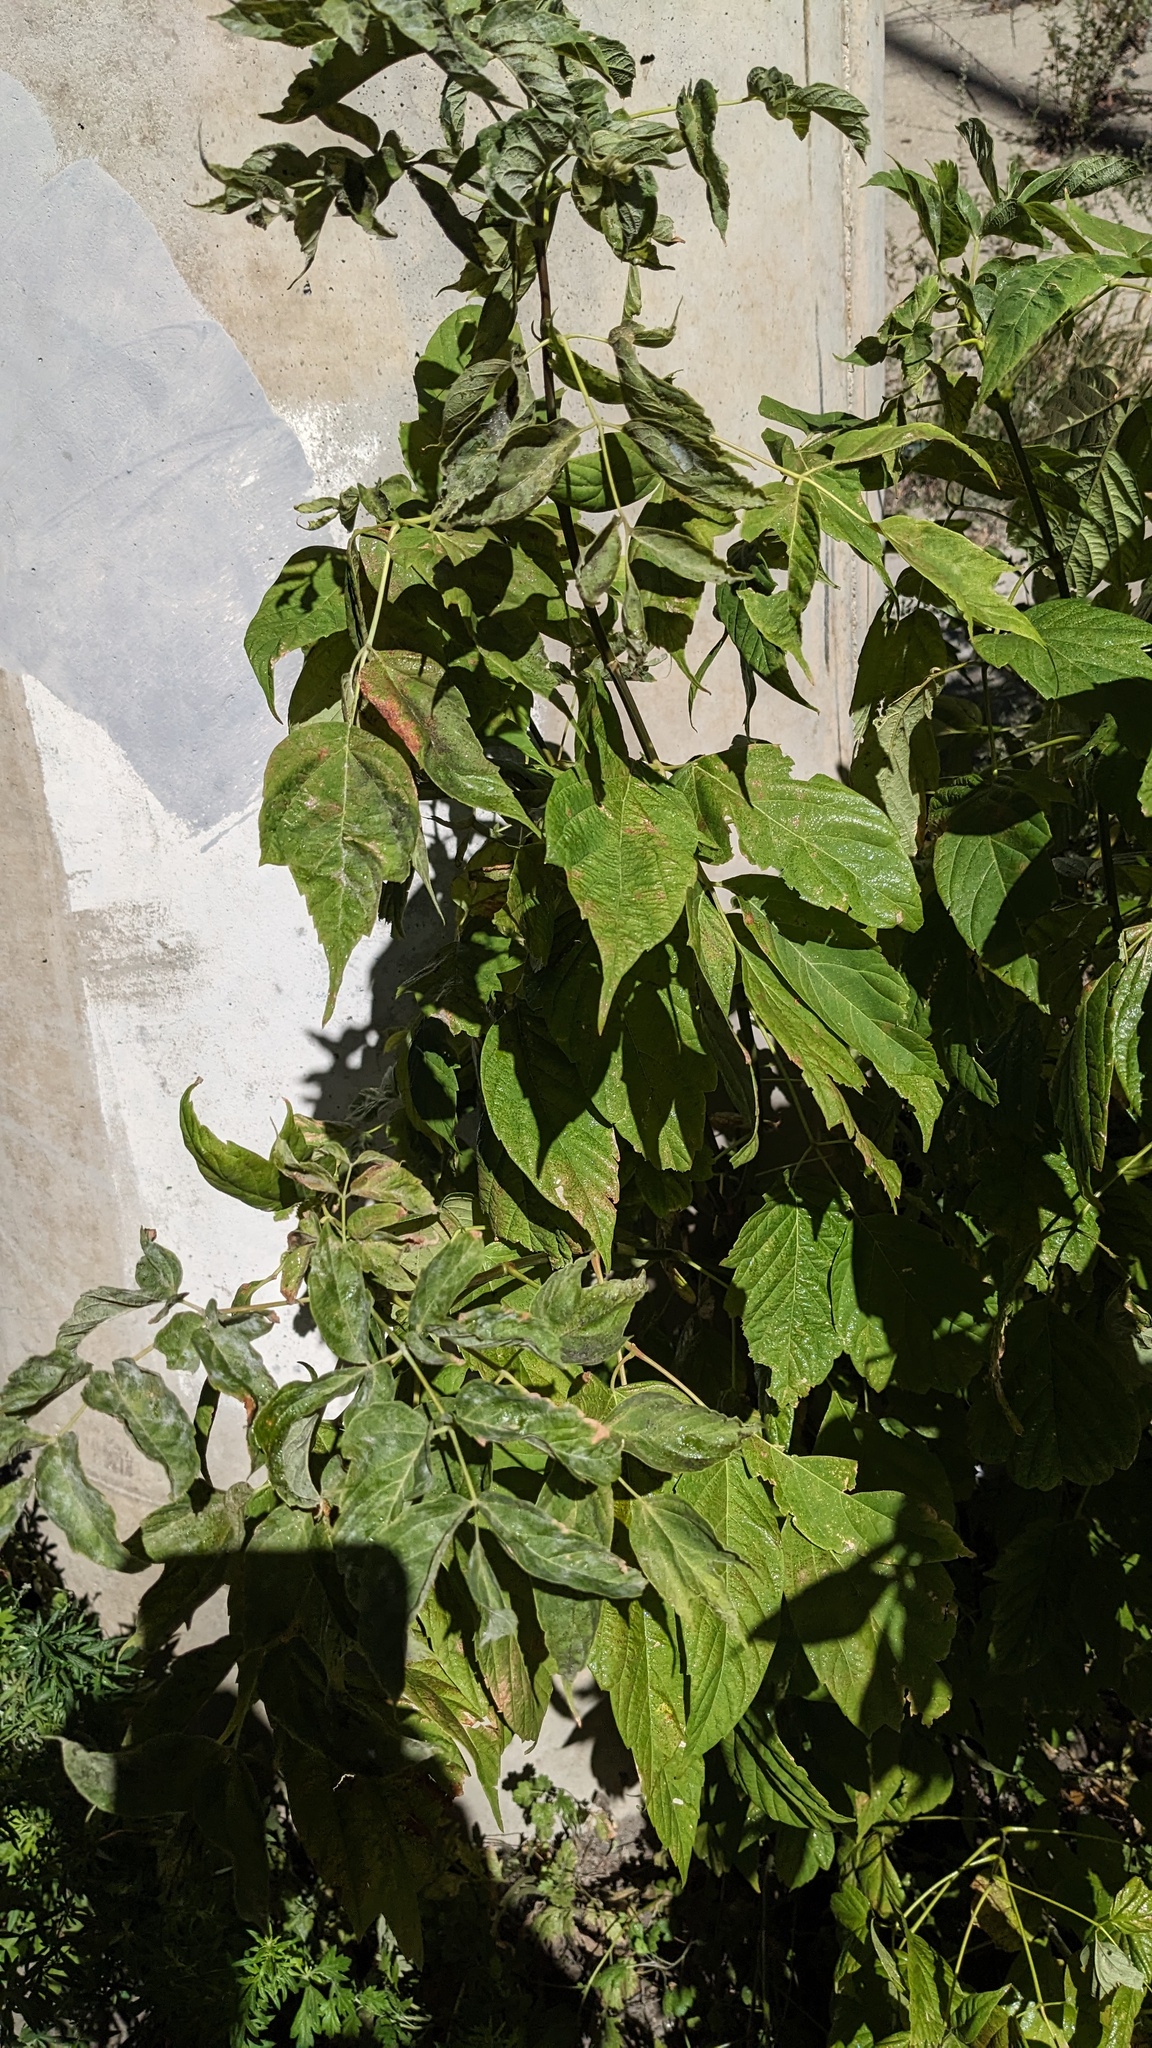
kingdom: Plantae
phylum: Tracheophyta
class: Magnoliopsida
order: Sapindales
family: Sapindaceae
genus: Acer
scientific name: Acer negundo
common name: Ashleaf maple
